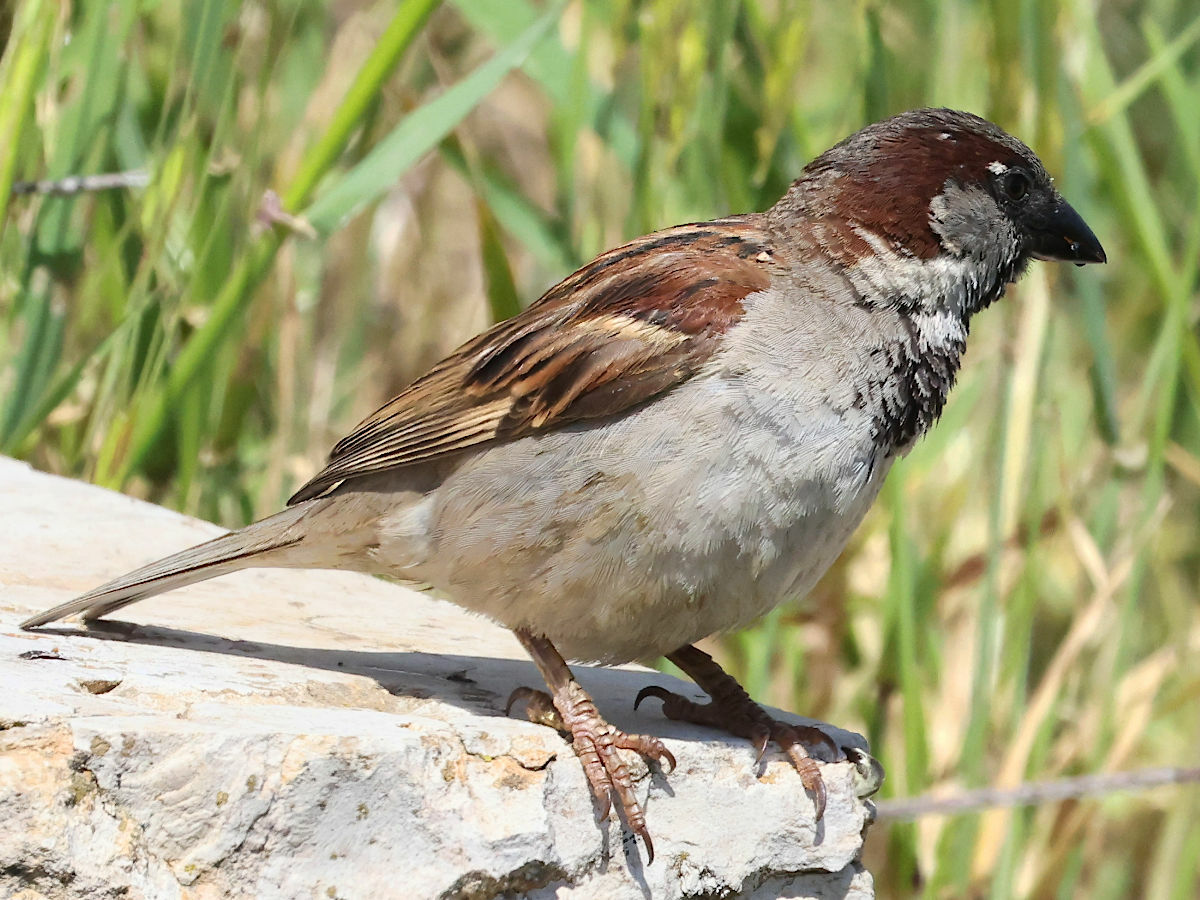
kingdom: Animalia
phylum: Chordata
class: Aves
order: Passeriformes
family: Passeridae
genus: Passer
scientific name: Passer domesticus
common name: House sparrow
